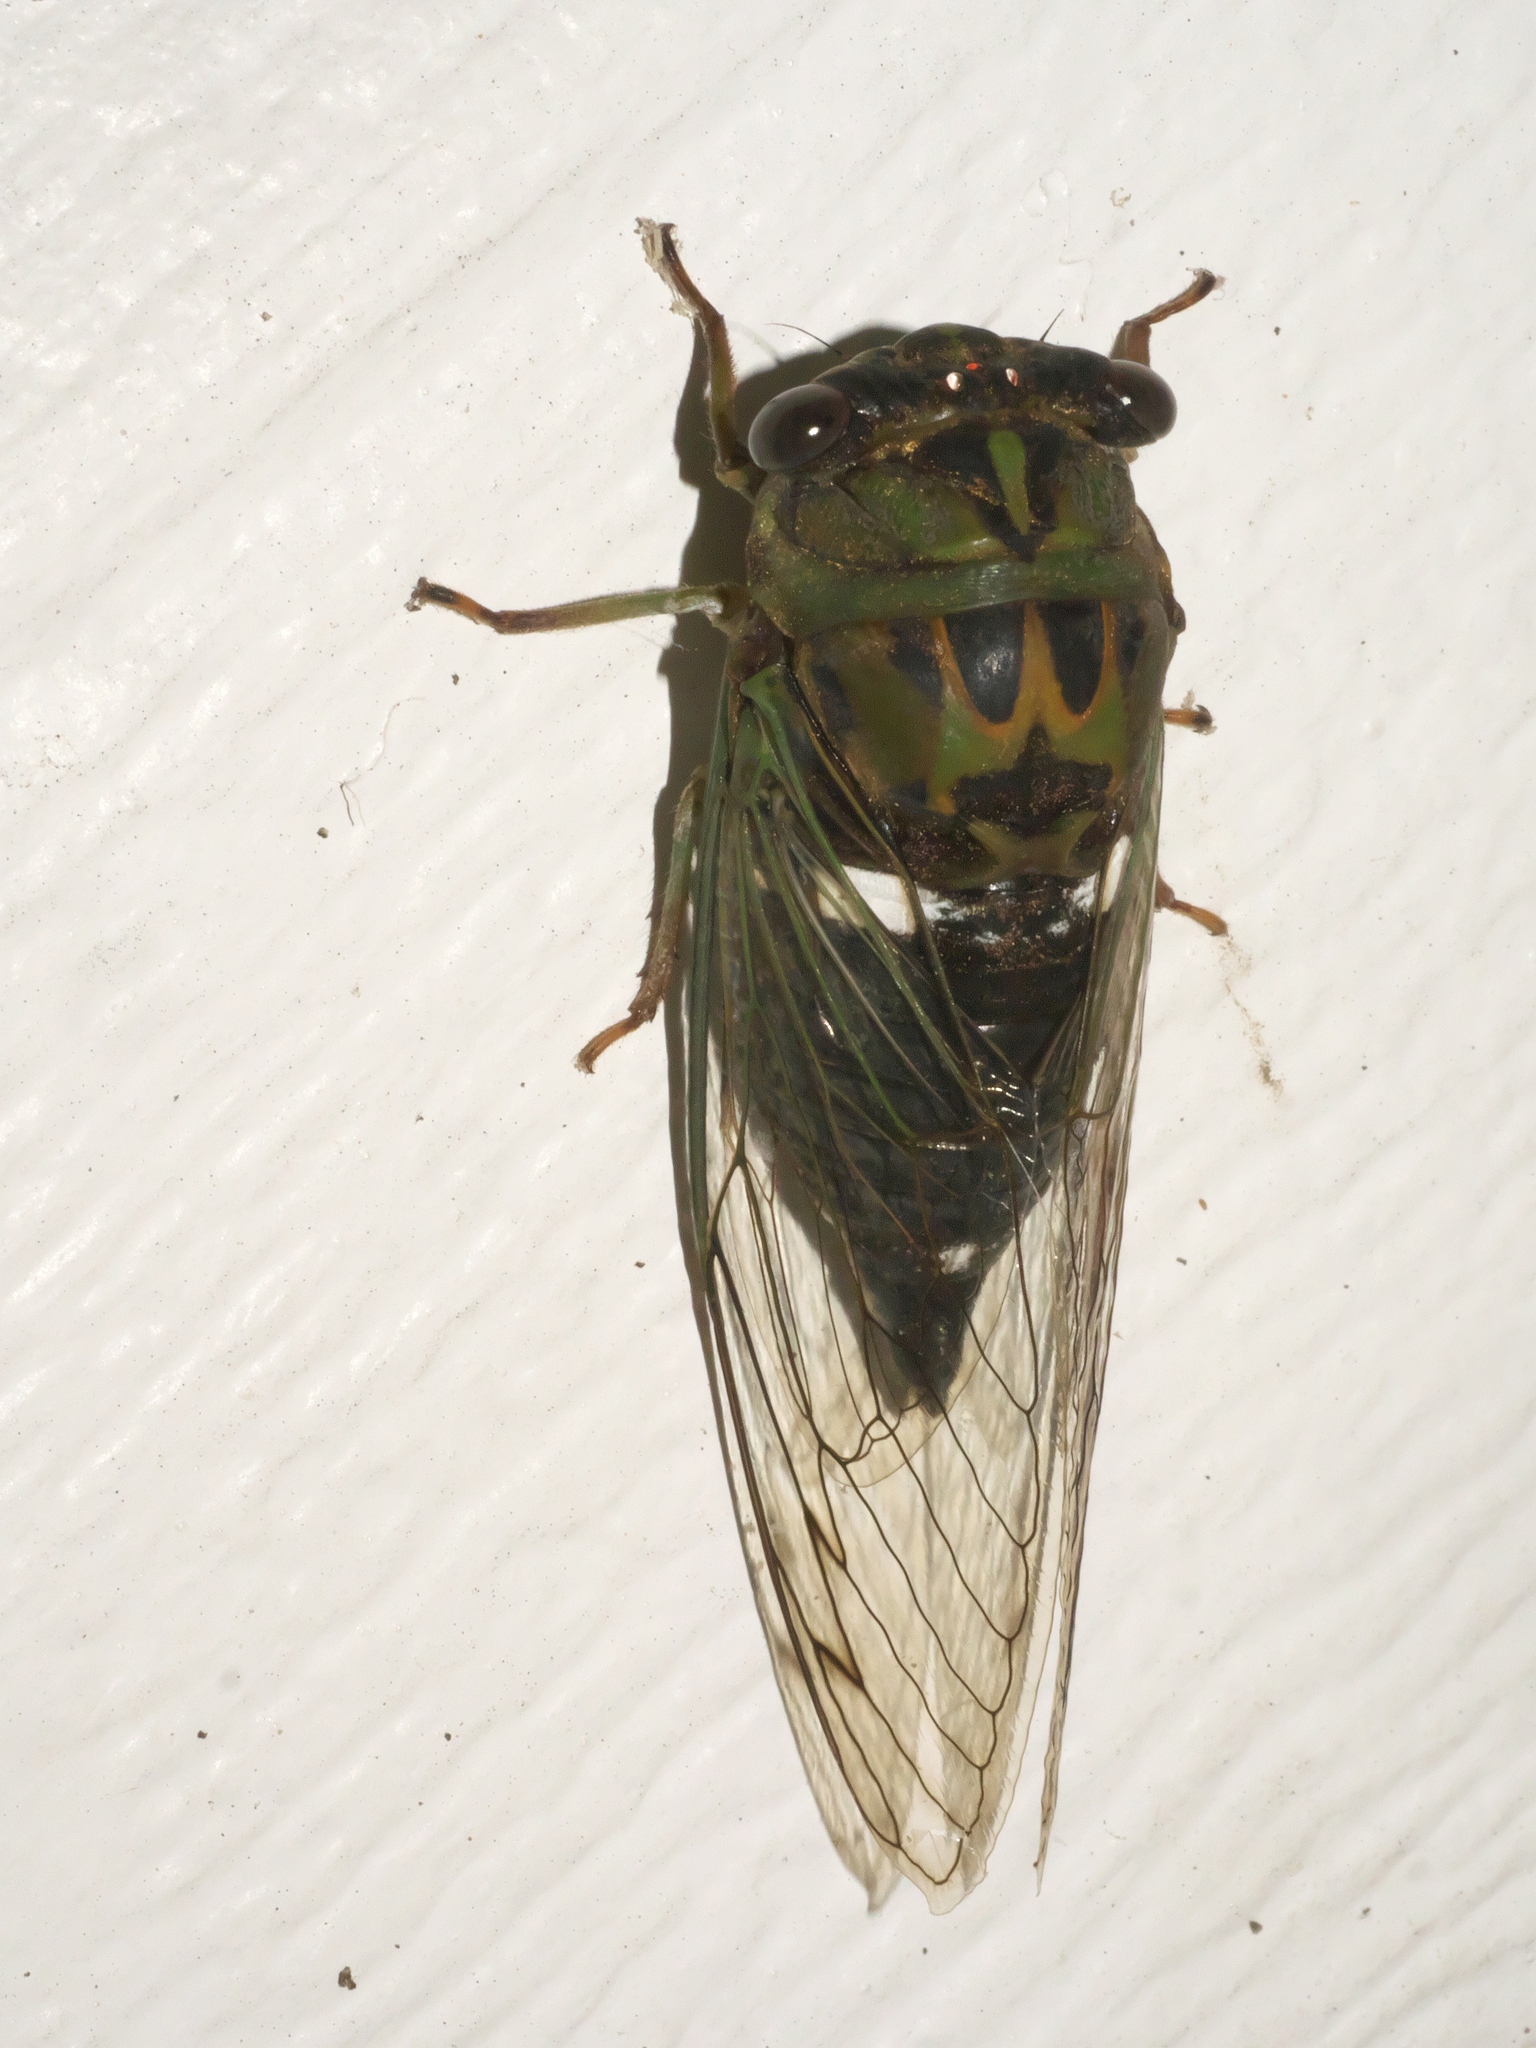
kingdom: Animalia
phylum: Arthropoda
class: Insecta
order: Hemiptera
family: Cicadidae
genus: Neotibicen
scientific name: Neotibicen pruinosus
